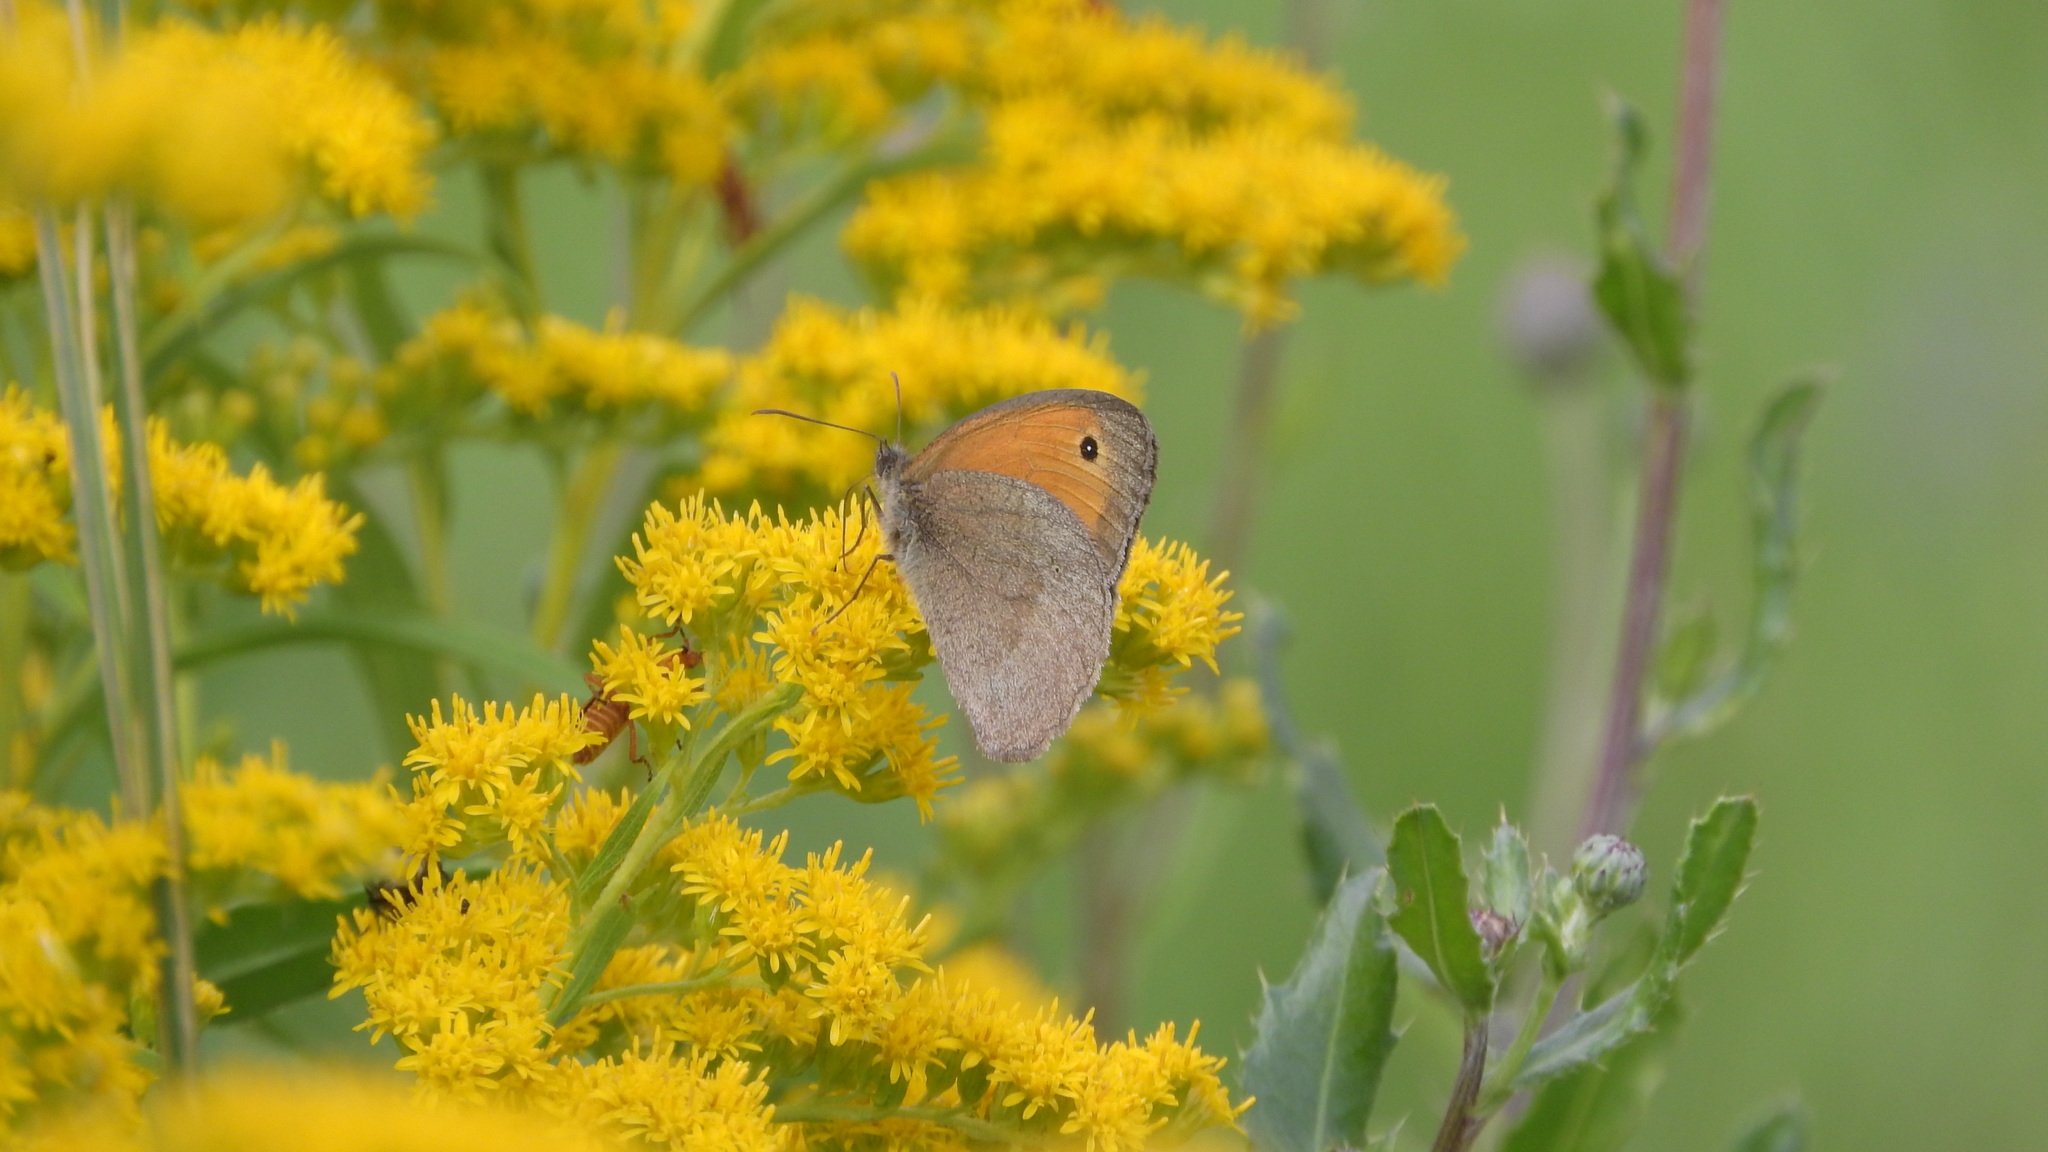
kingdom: Animalia
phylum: Arthropoda
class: Insecta
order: Lepidoptera
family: Nymphalidae
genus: Maniola
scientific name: Maniola jurtina
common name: Meadow brown
